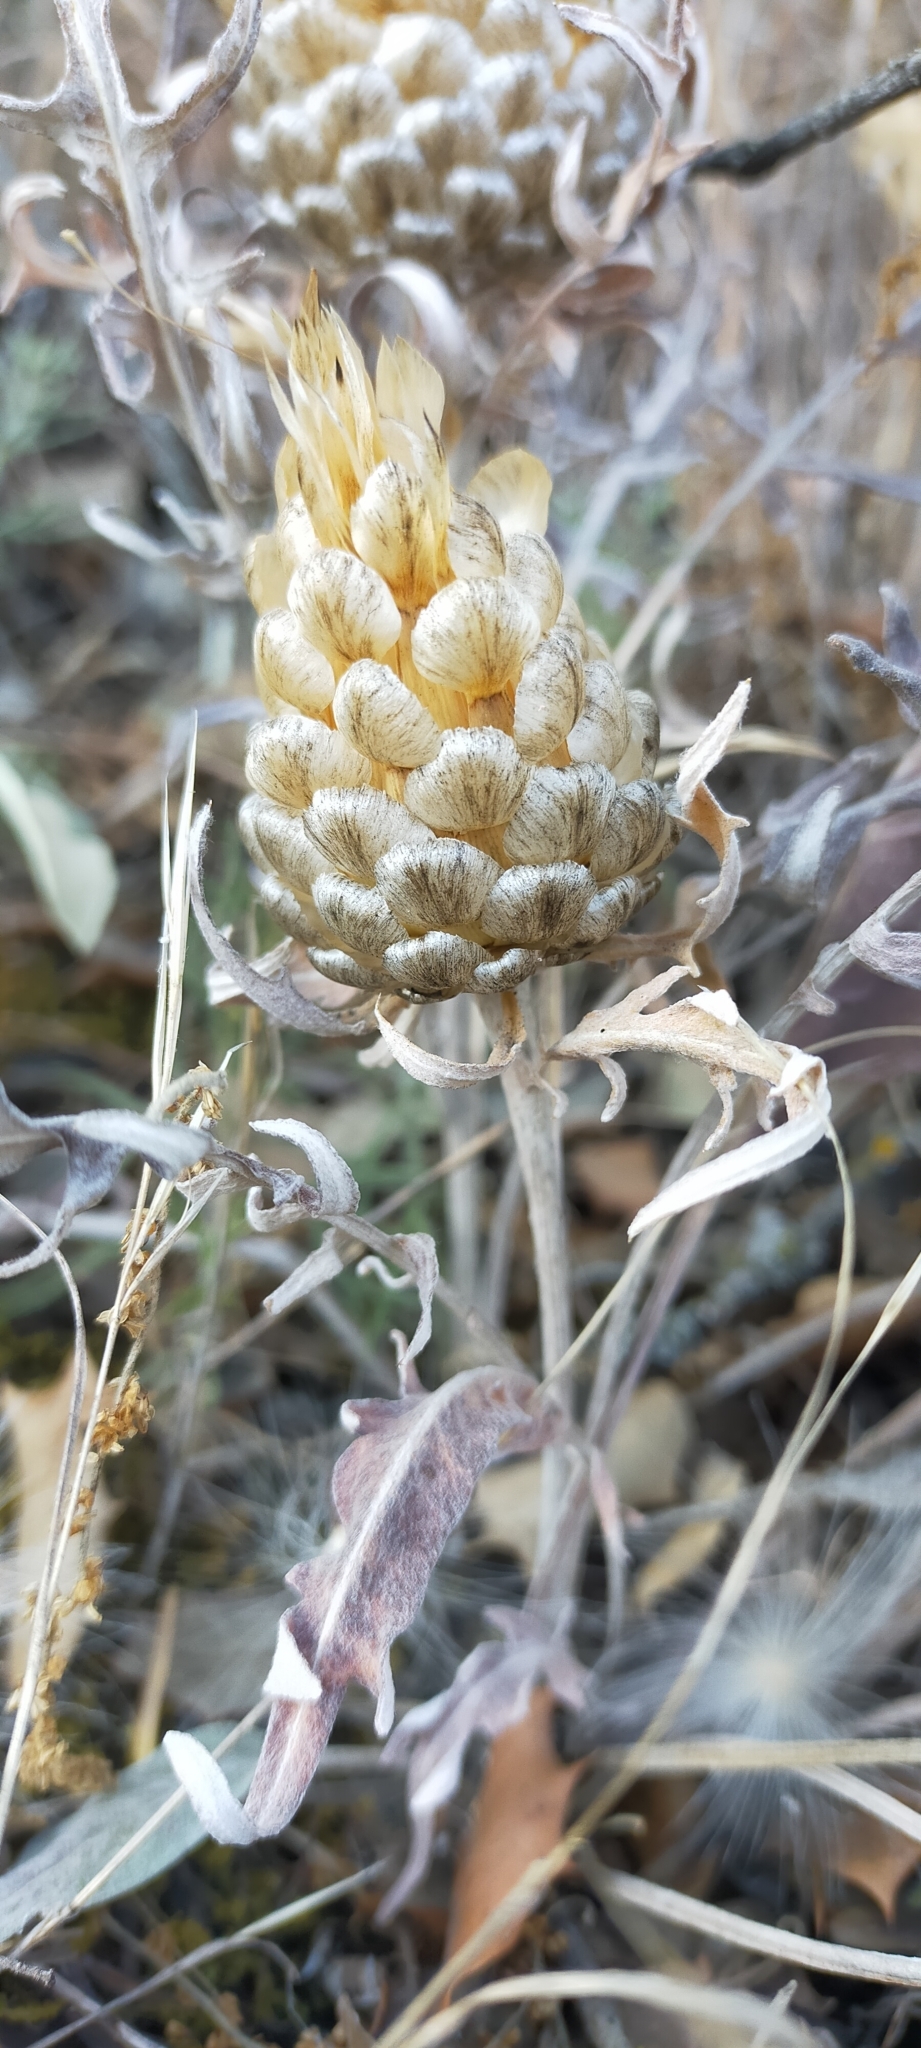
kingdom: Plantae
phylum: Tracheophyta
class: Magnoliopsida
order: Asterales
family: Asteraceae
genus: Leuzea
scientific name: Leuzea conifera
